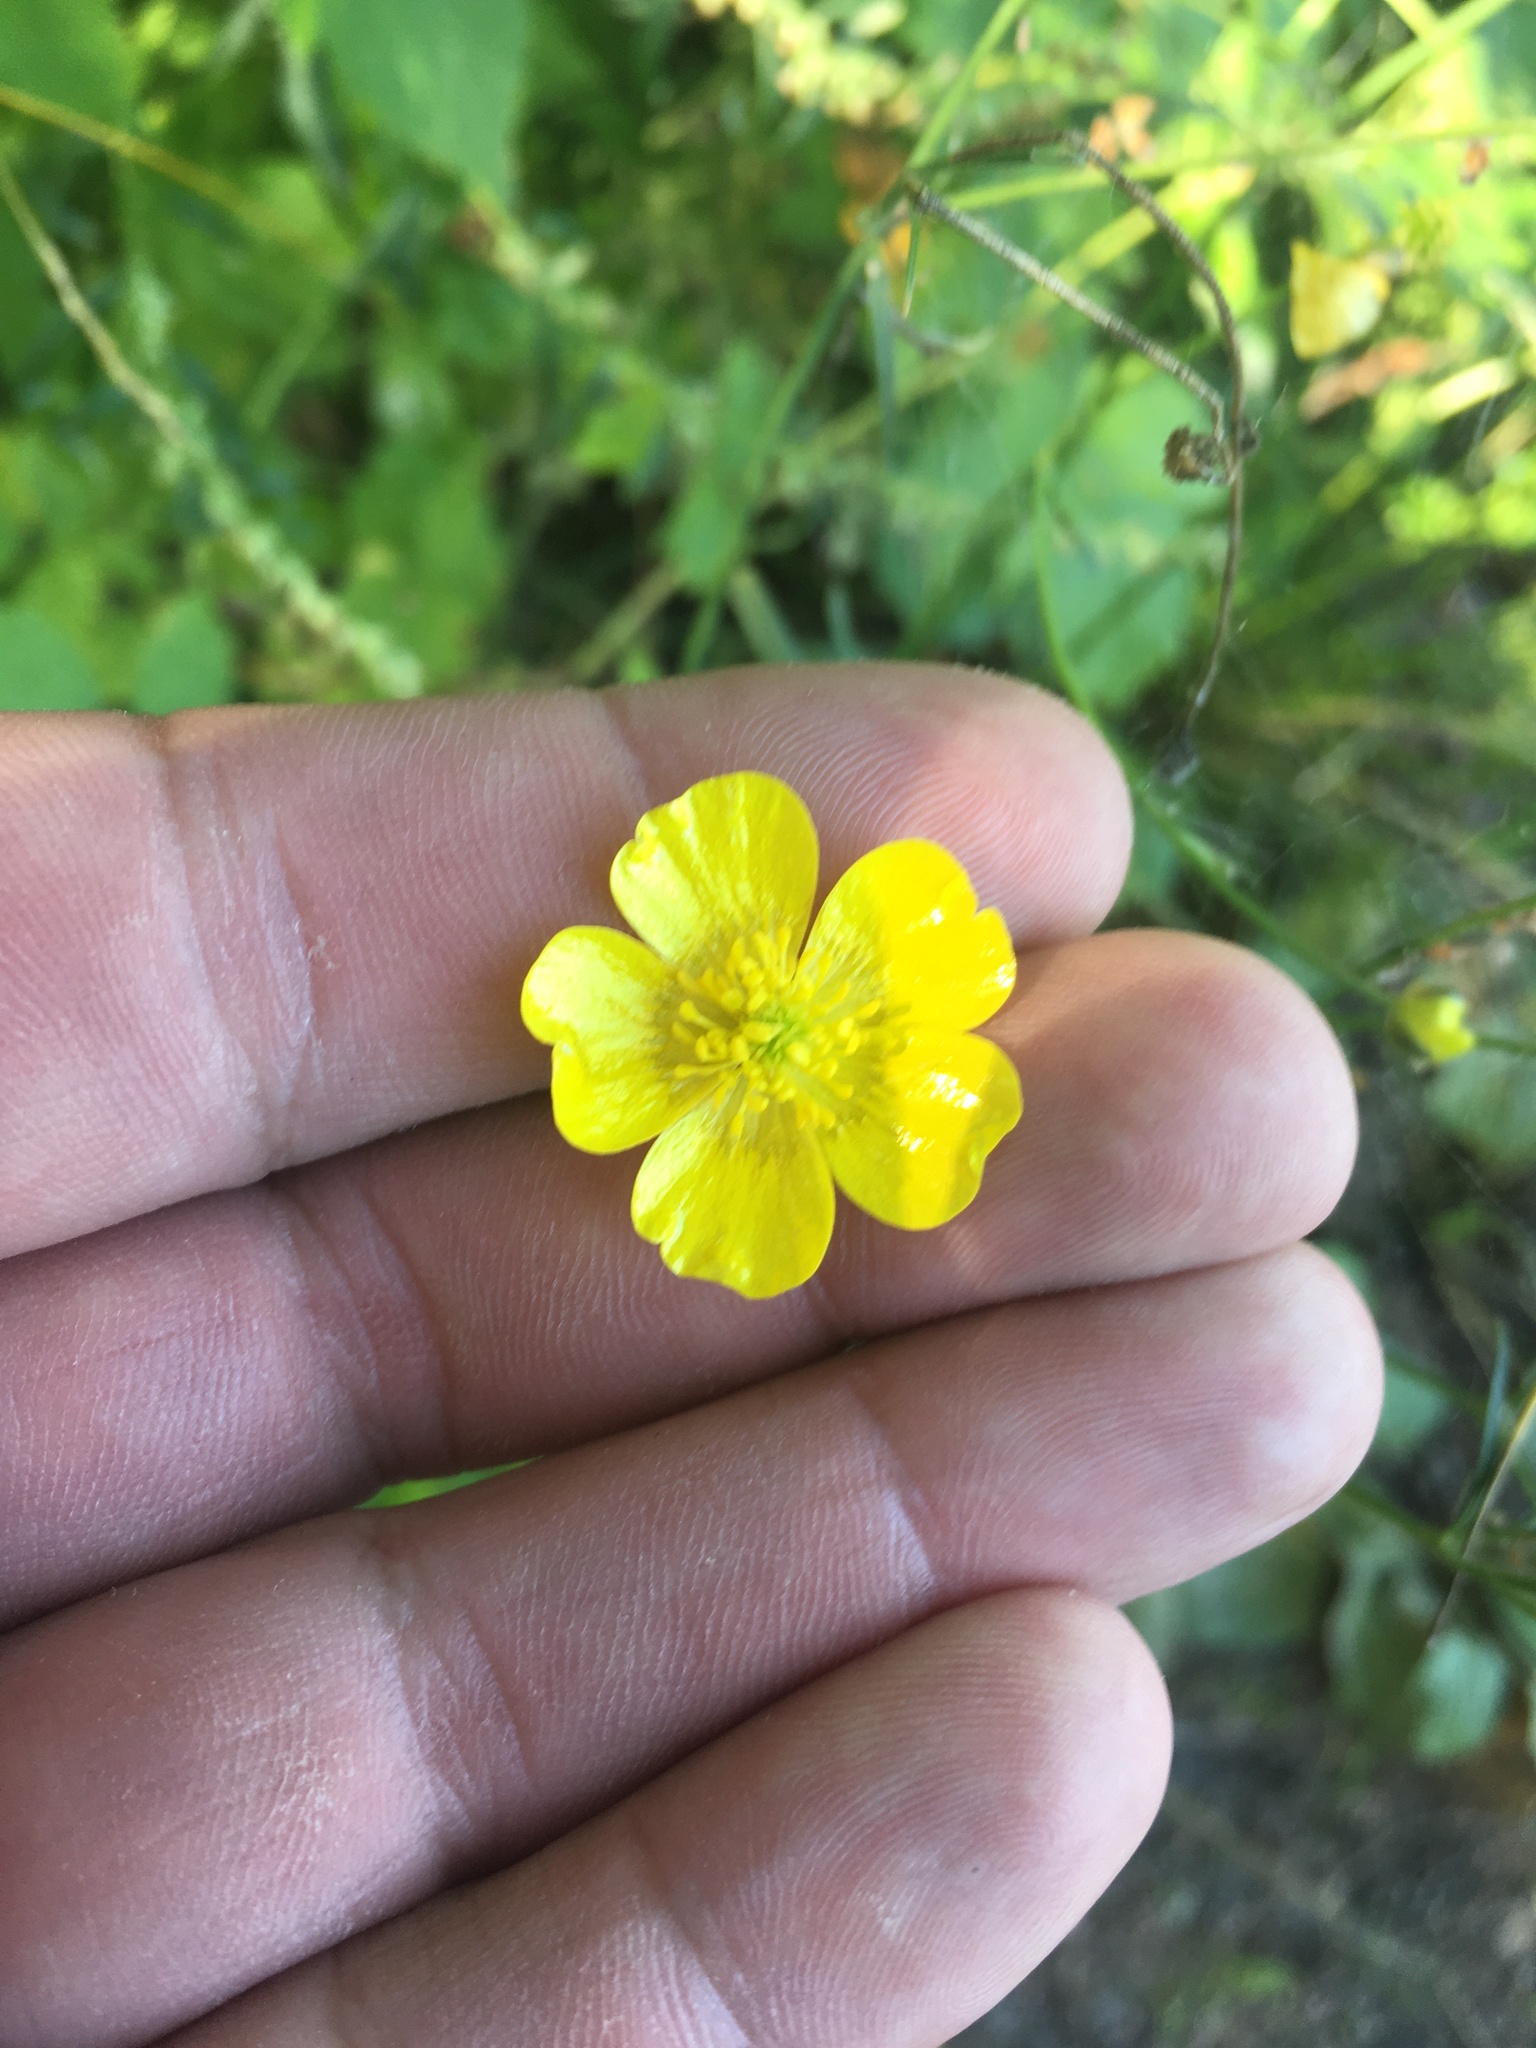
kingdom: Plantae
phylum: Tracheophyta
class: Magnoliopsida
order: Ranunculales
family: Ranunculaceae
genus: Ranunculus
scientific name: Ranunculus acris
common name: Meadow buttercup
